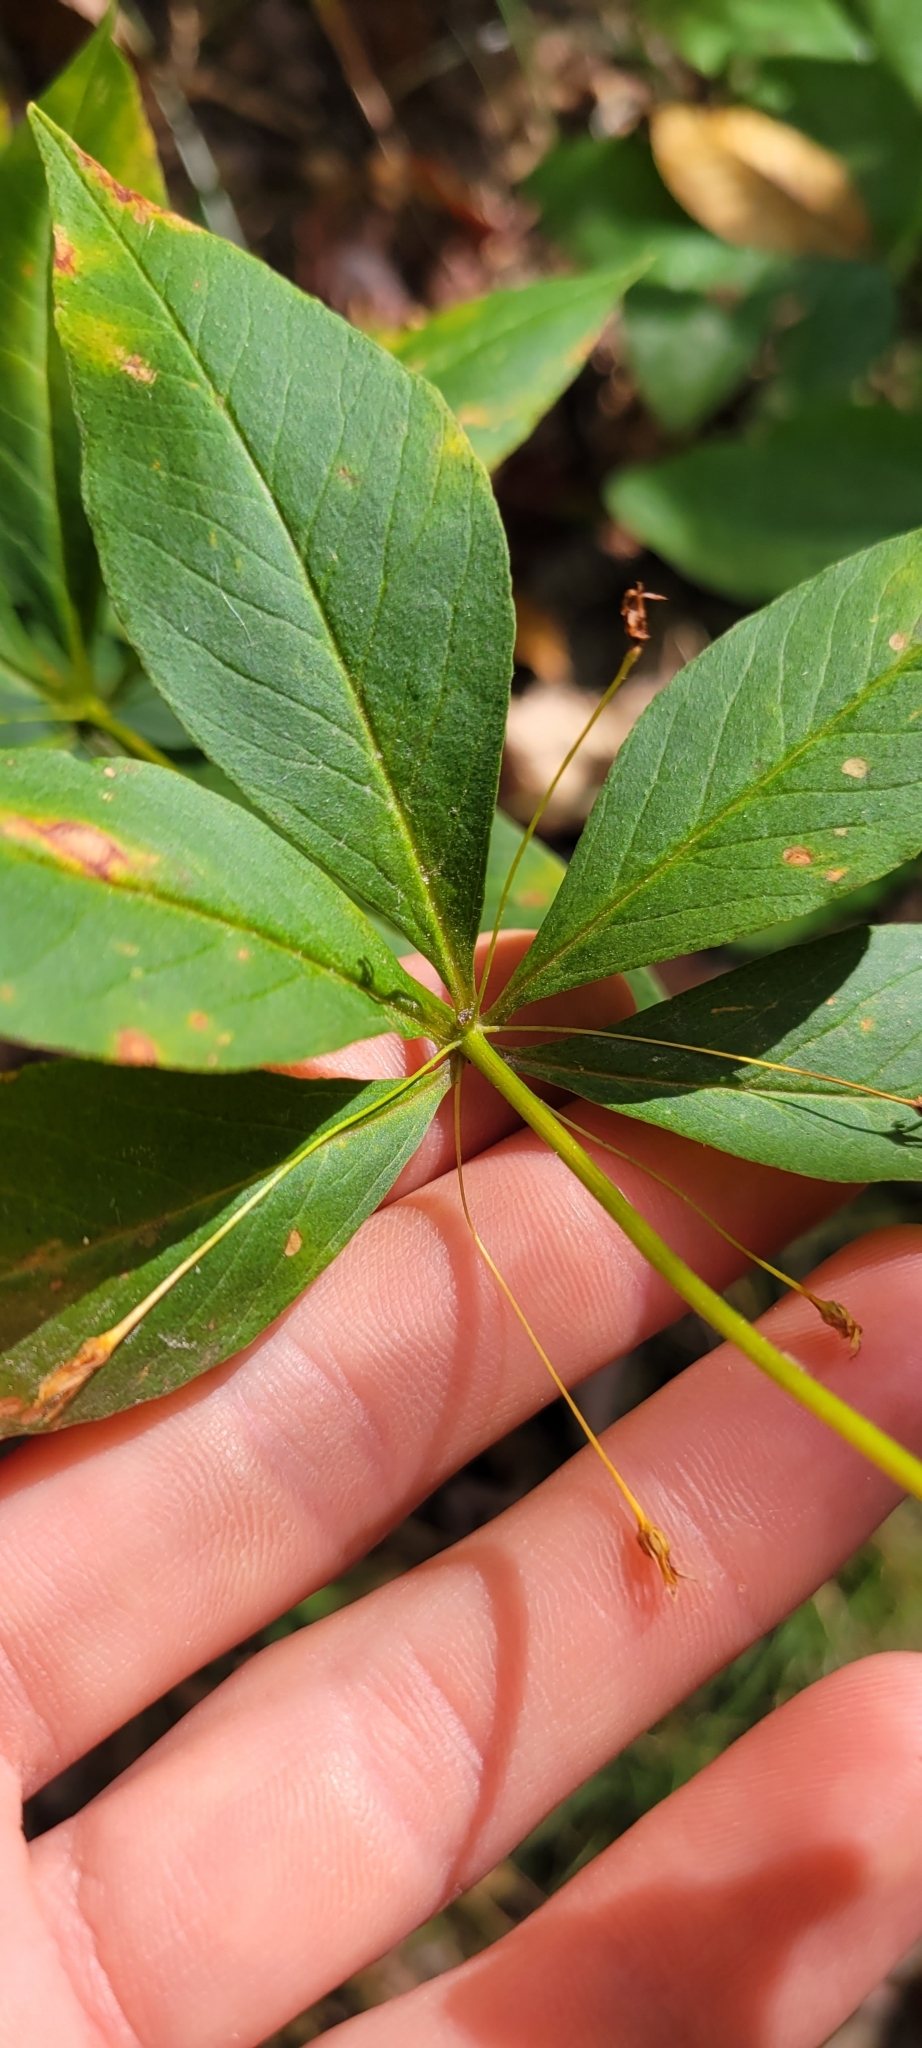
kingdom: Plantae
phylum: Tracheophyta
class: Magnoliopsida
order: Ericales
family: Primulaceae
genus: Lysimachia
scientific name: Lysimachia quadrifolia
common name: Whorled loosestrife
